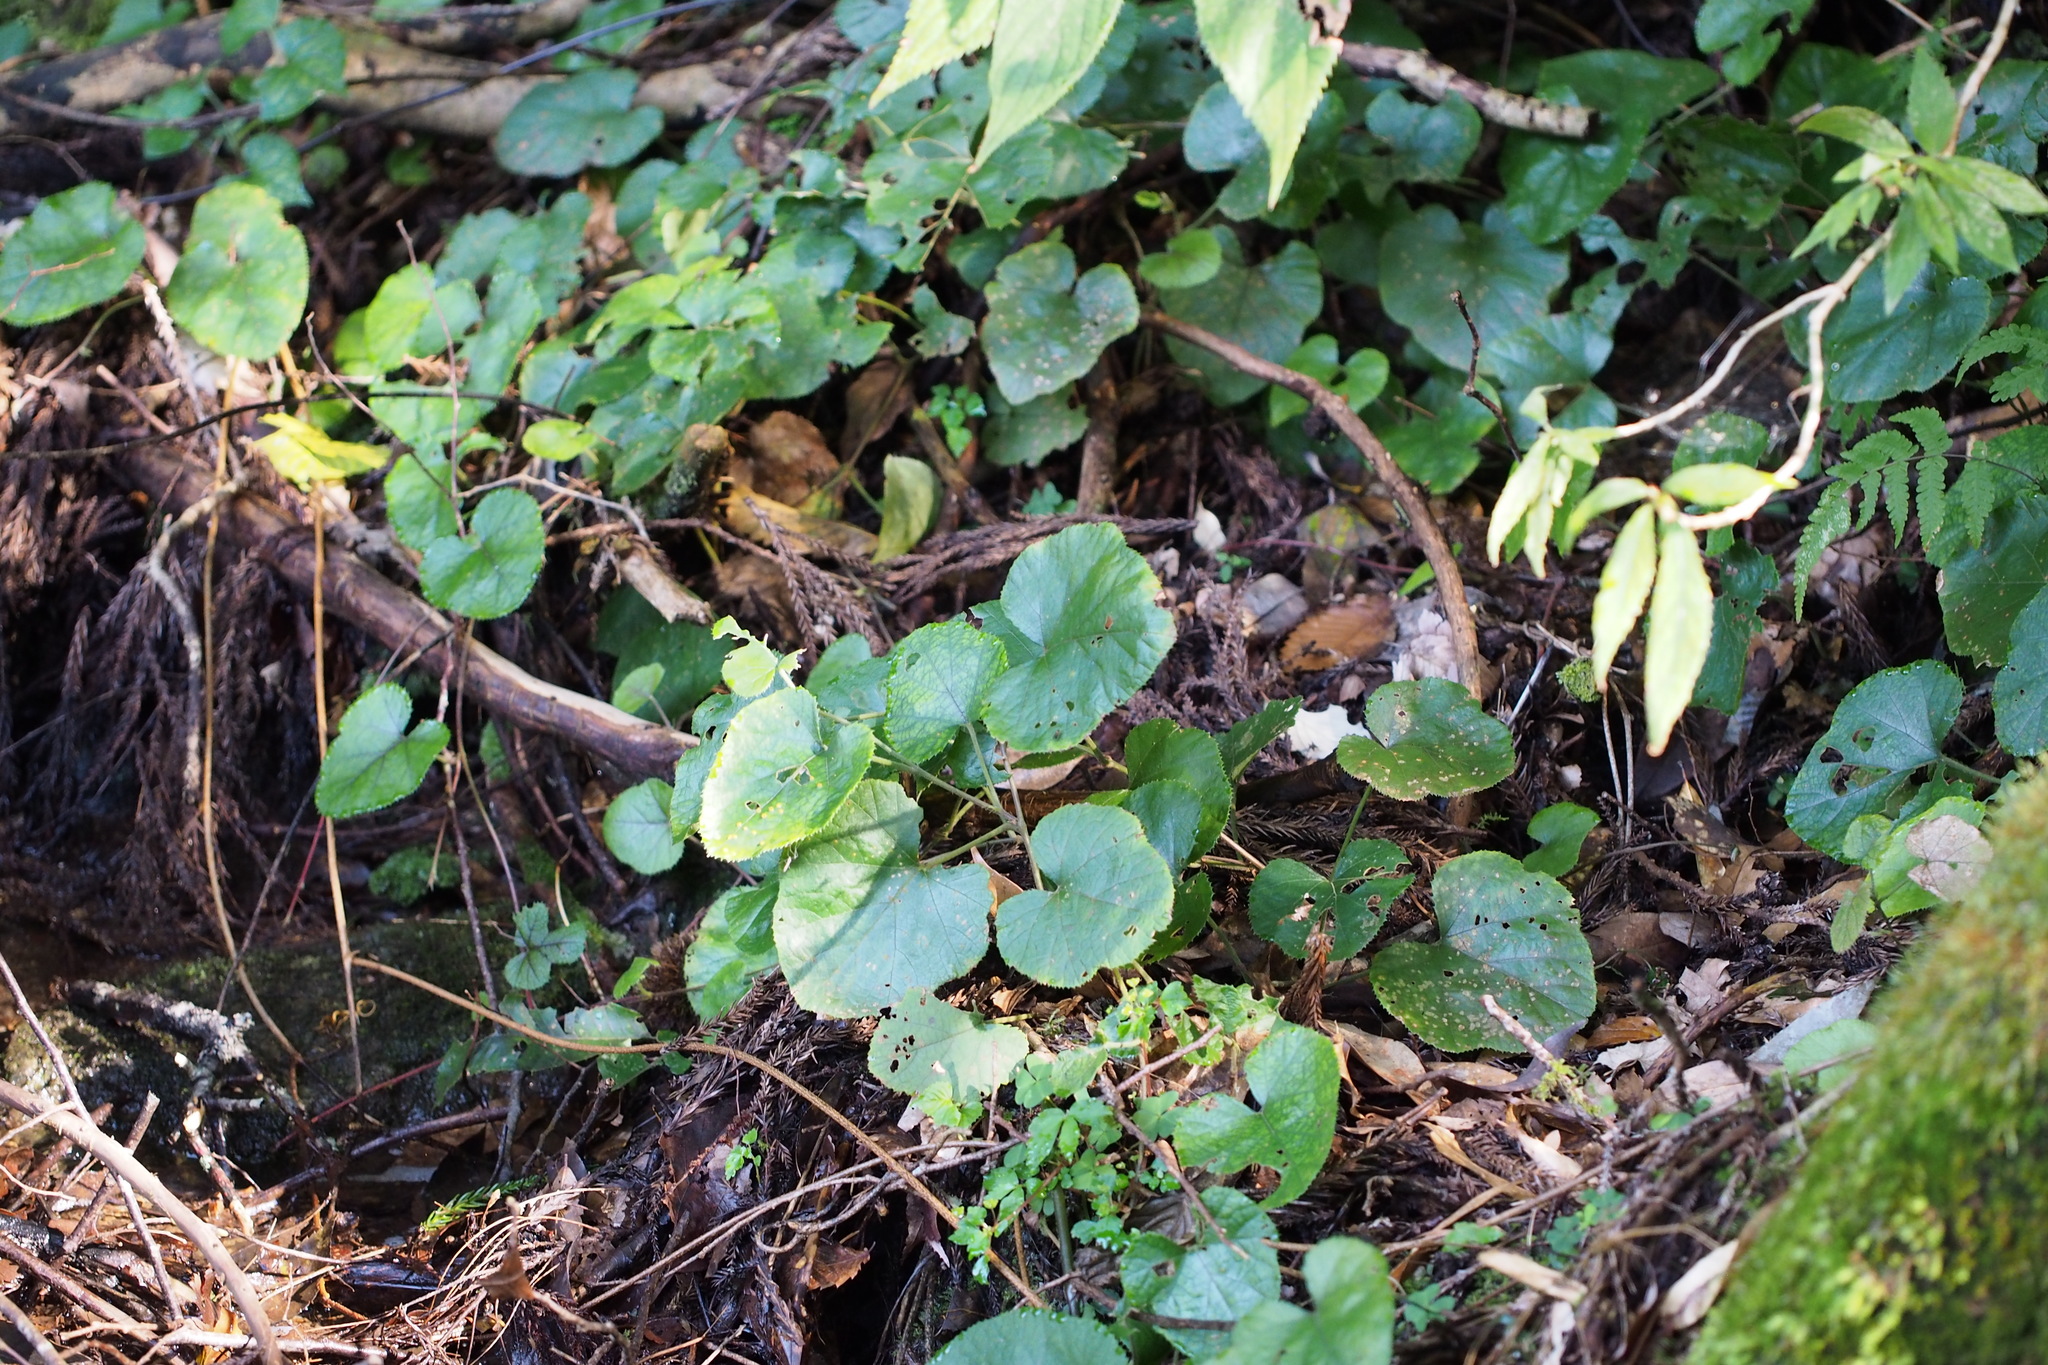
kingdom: Plantae
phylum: Tracheophyta
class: Magnoliopsida
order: Rosales
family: Rosaceae
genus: Rubus
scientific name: Rubus buergeri
